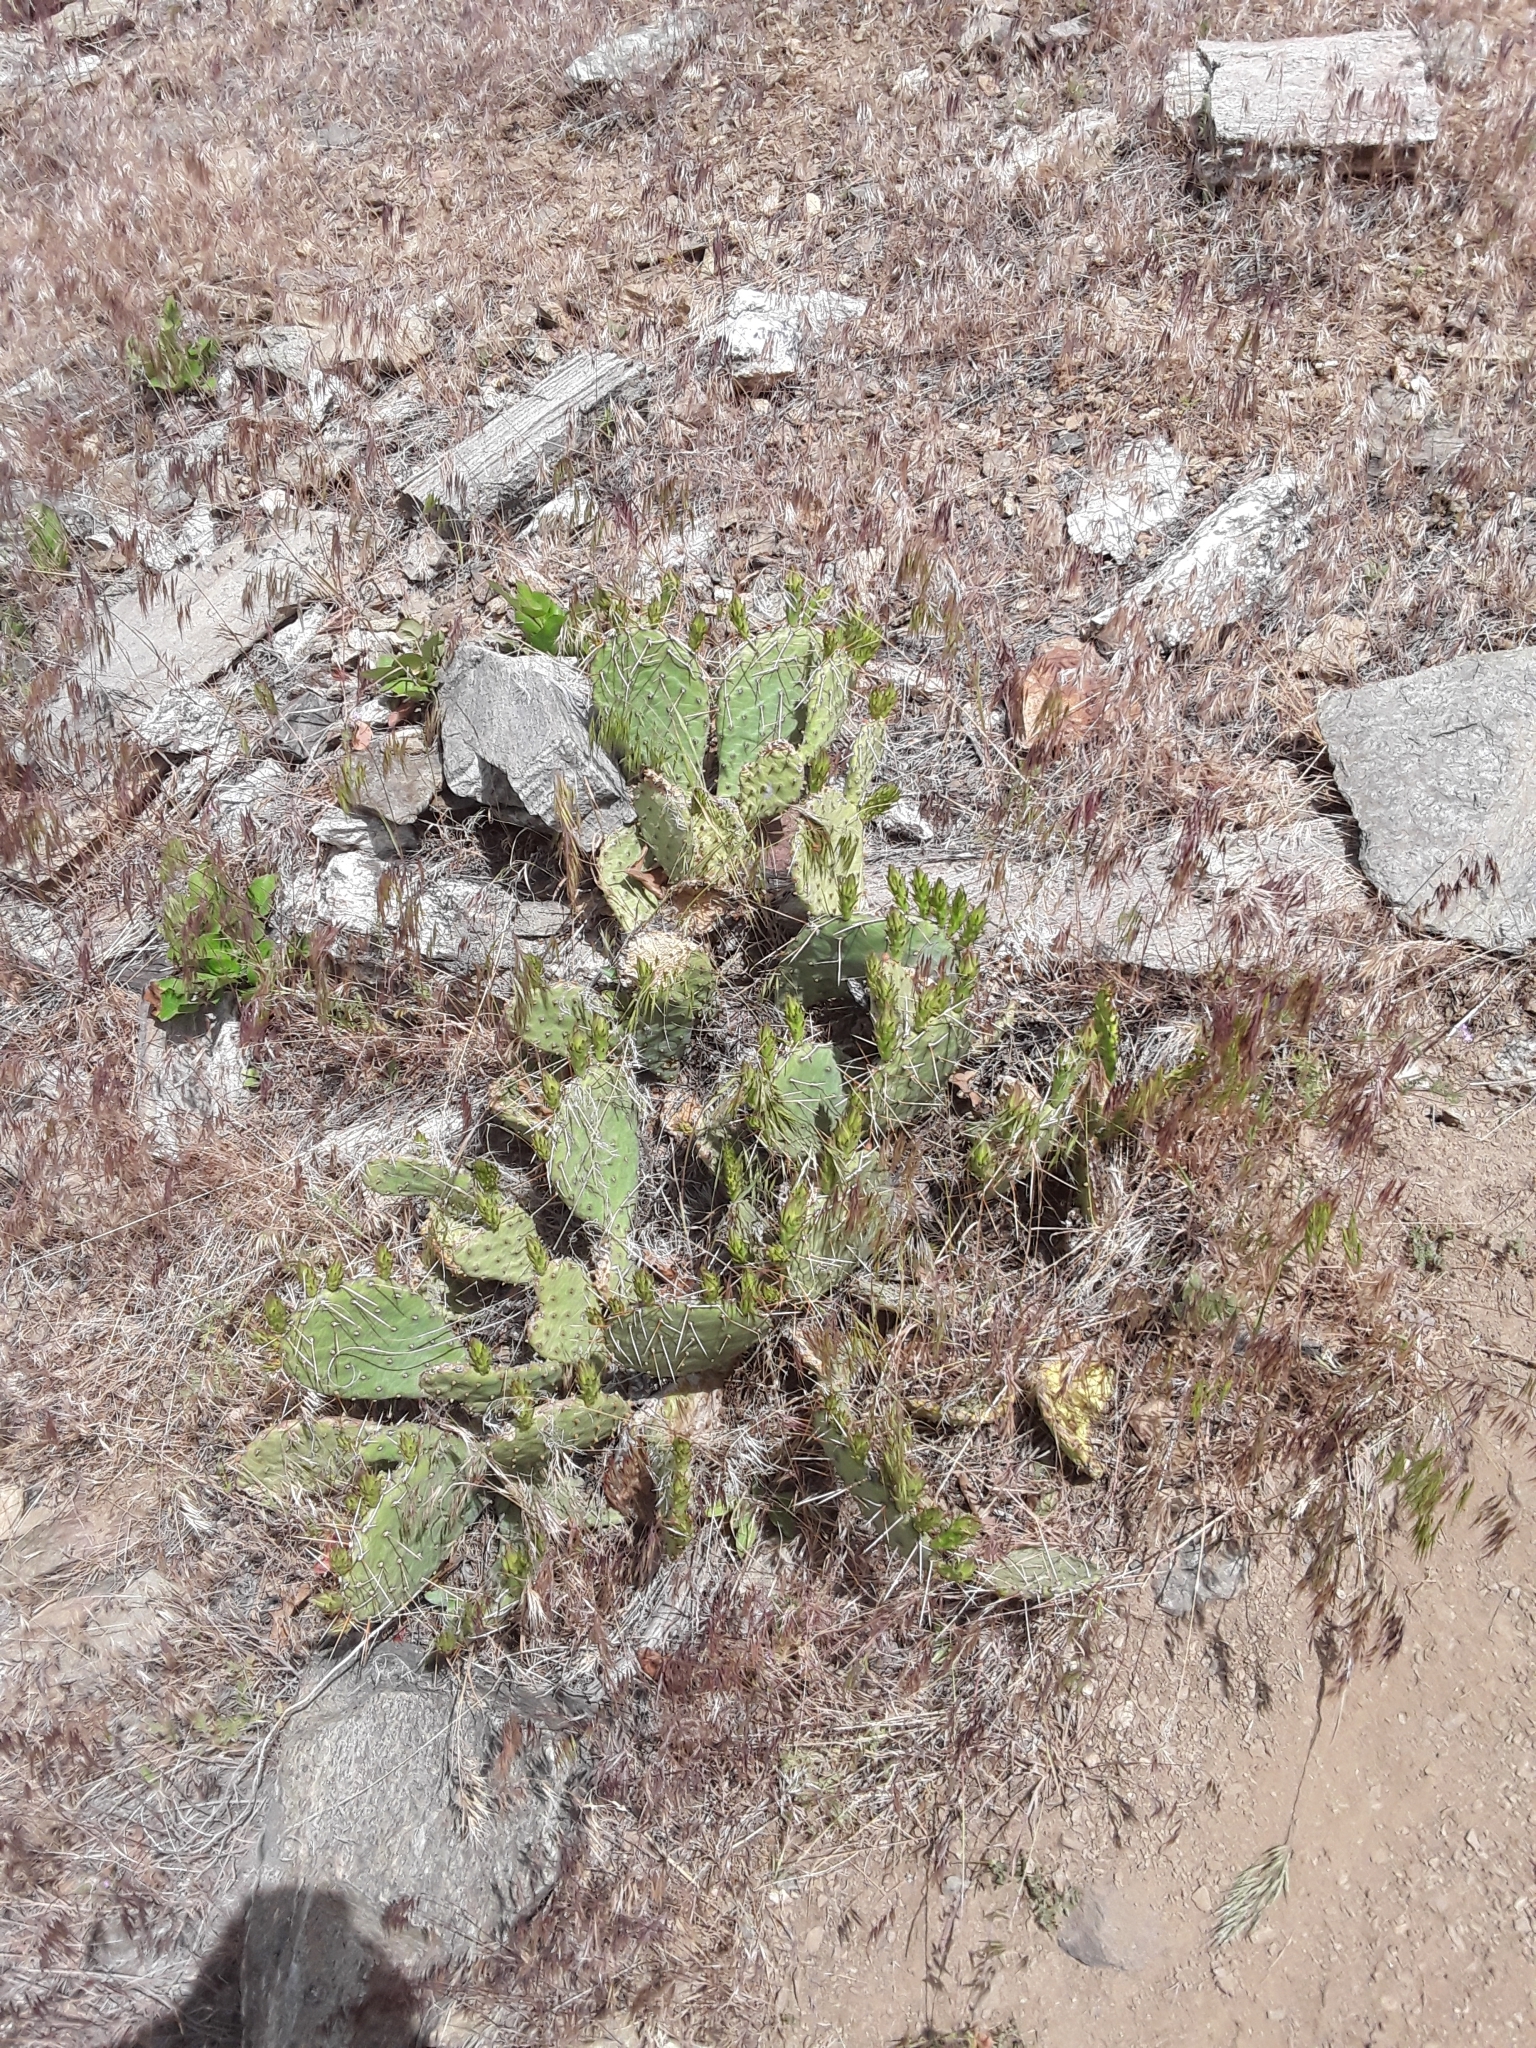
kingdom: Plantae
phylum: Tracheophyta
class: Magnoliopsida
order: Caryophyllales
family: Cactaceae
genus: Opuntia
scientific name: Opuntia polyacantha
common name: Plains prickly-pear
